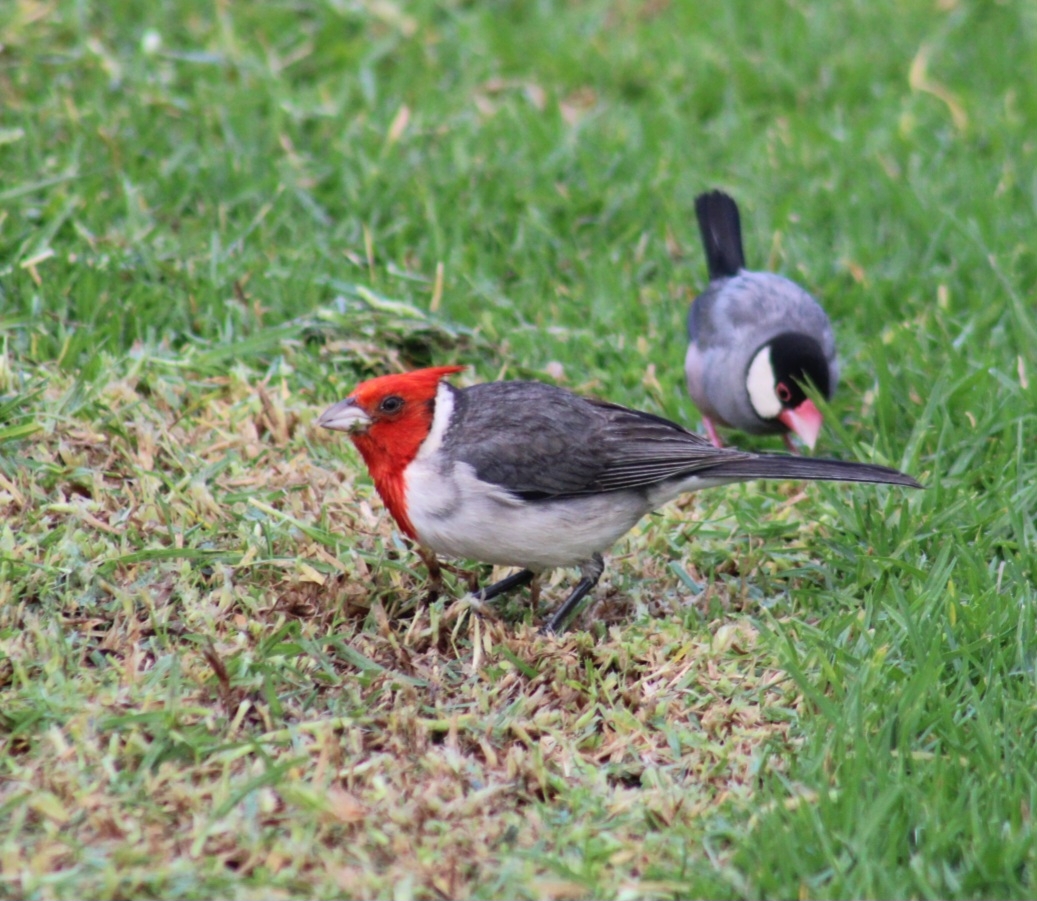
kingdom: Animalia
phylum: Chordata
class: Aves
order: Passeriformes
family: Thraupidae
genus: Paroaria
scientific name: Paroaria coronata
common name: Red-crested cardinal
